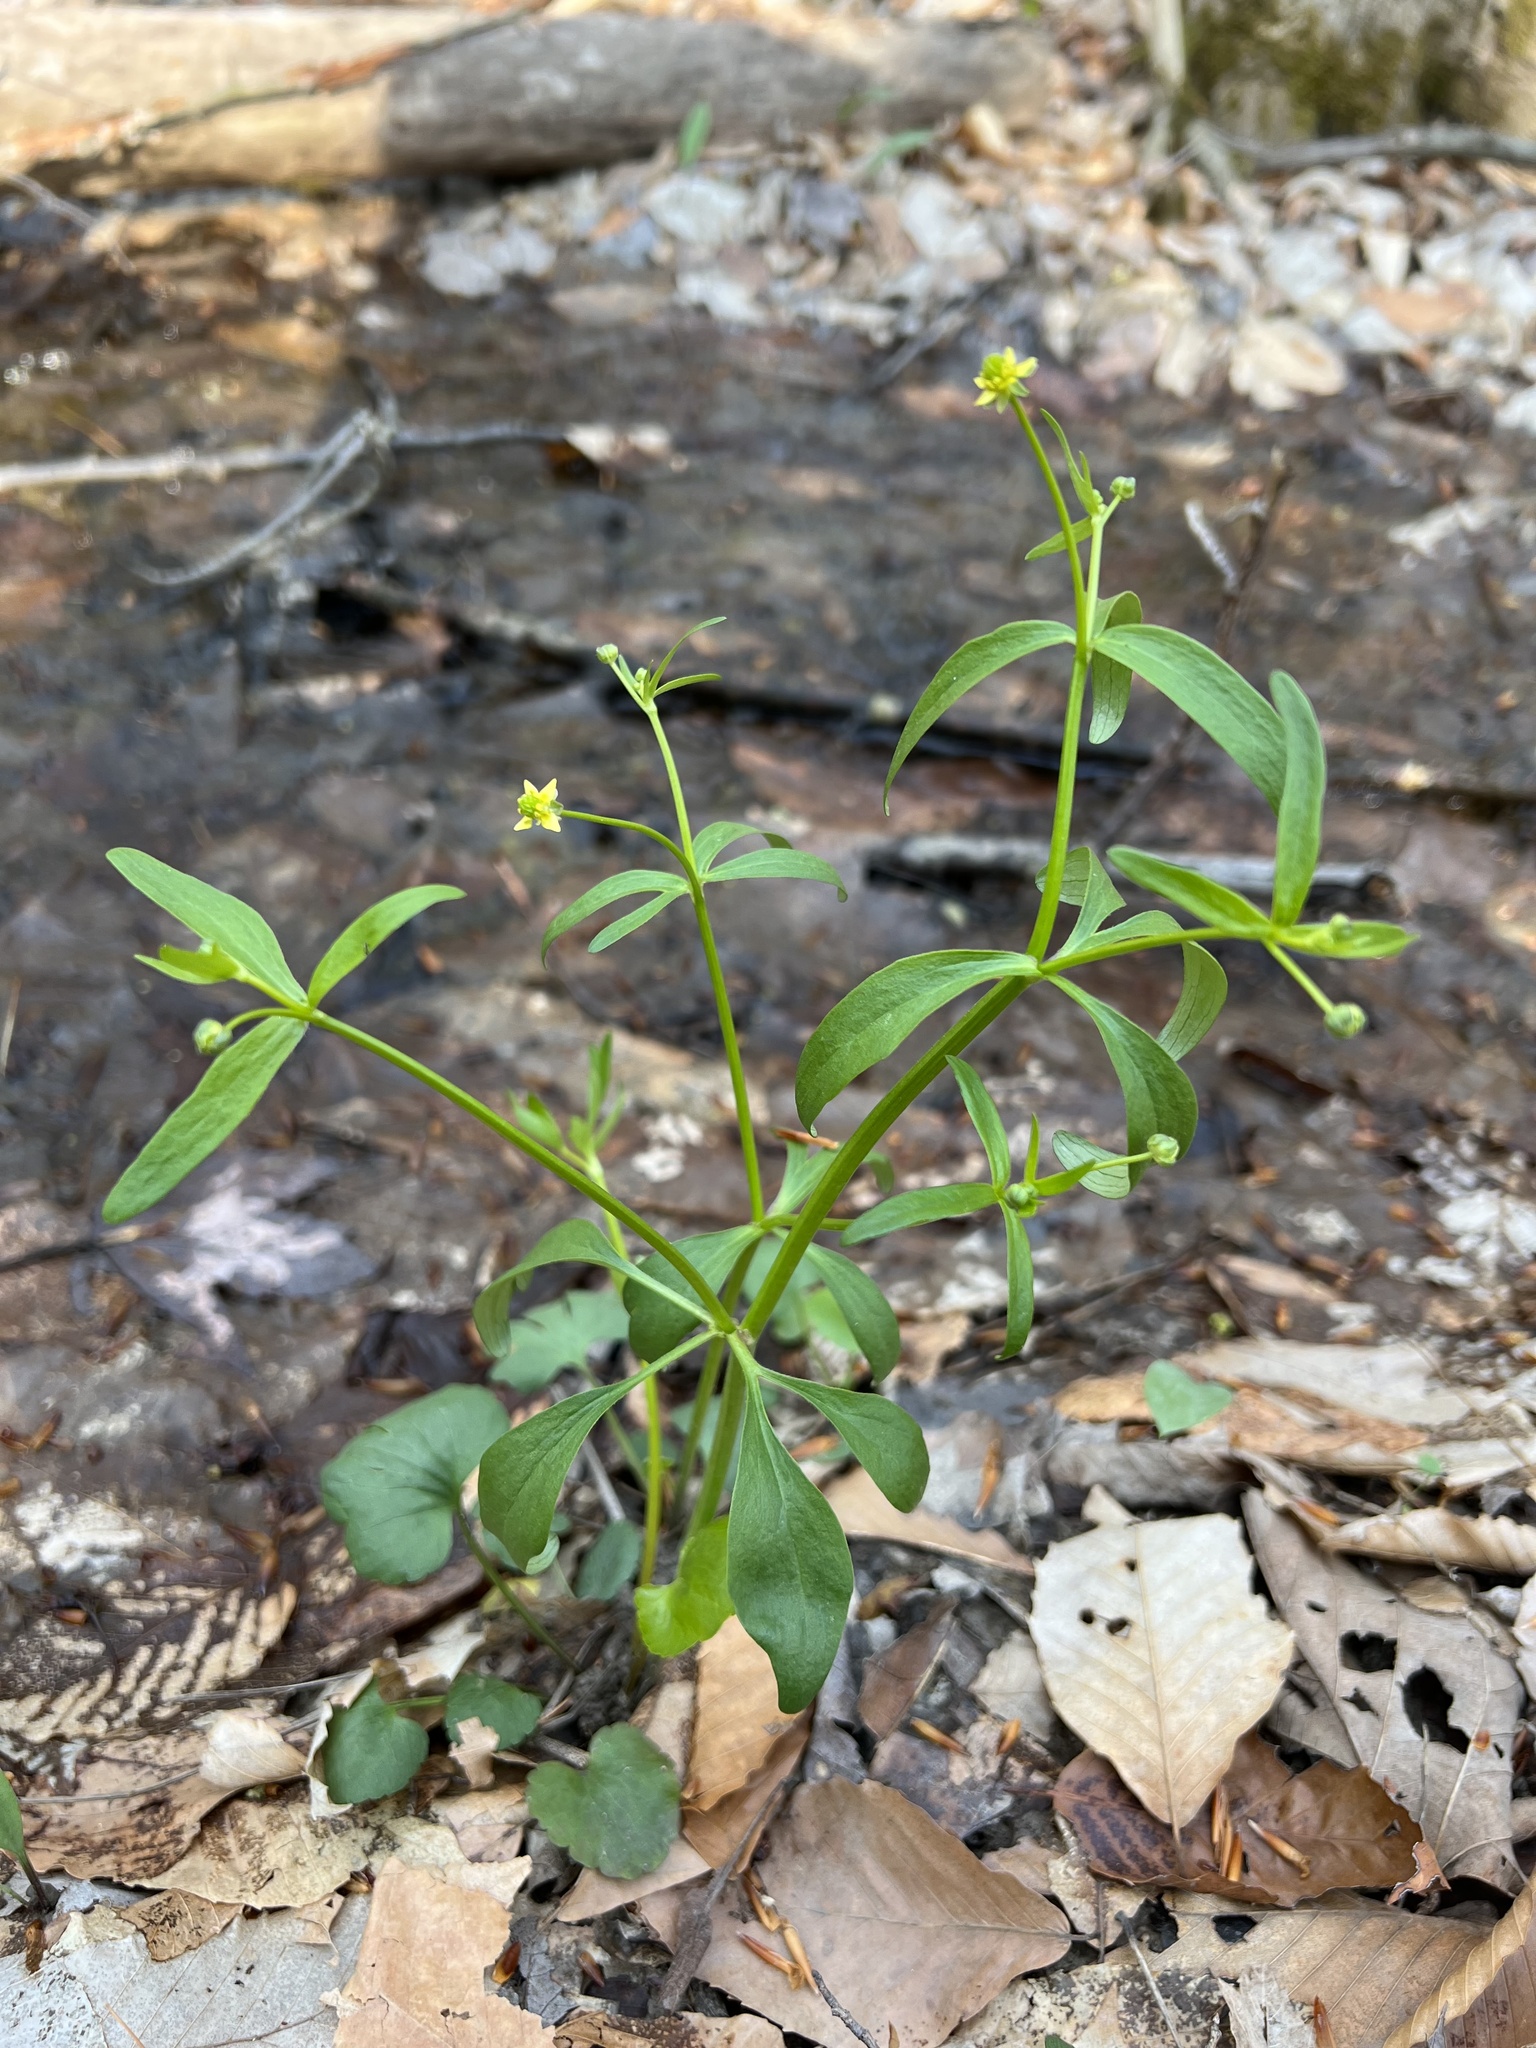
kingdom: Plantae
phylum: Tracheophyta
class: Magnoliopsida
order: Ranunculales
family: Ranunculaceae
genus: Ranunculus
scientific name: Ranunculus abortivus
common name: Early wood buttercup
